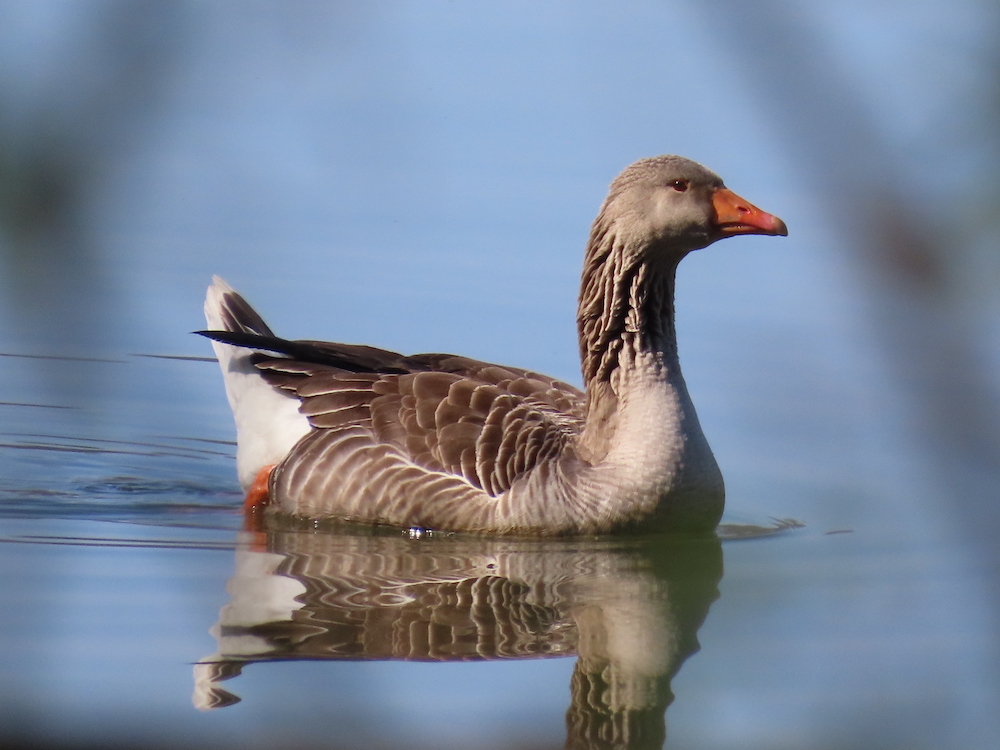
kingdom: Animalia
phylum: Chordata
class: Aves
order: Anseriformes
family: Anatidae
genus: Anser
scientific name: Anser anser
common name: Greylag goose
